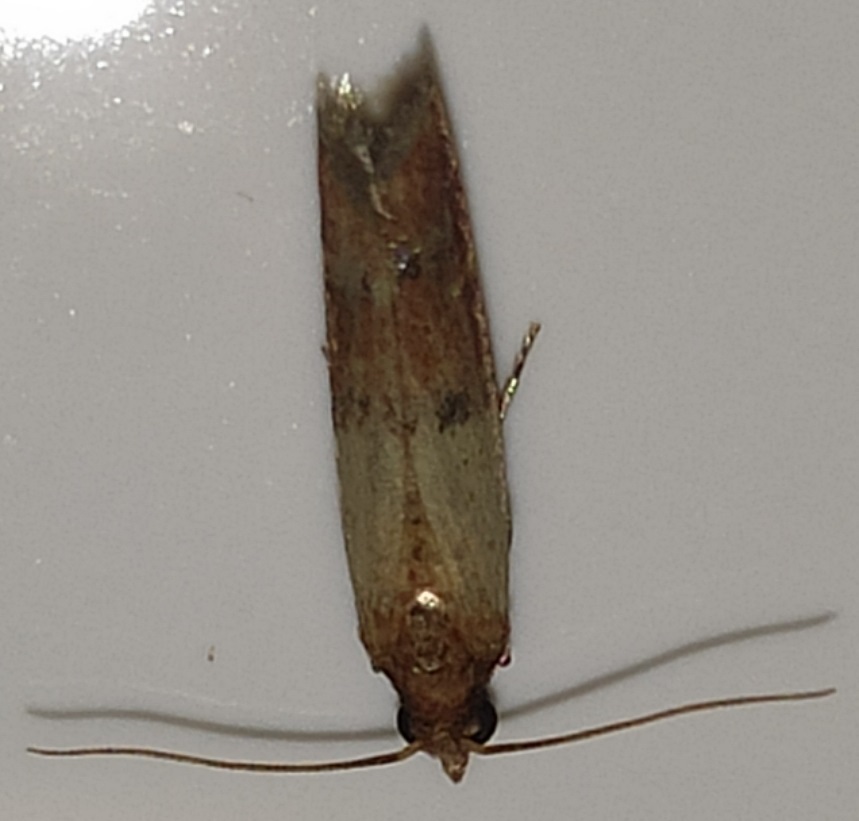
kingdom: Animalia
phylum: Arthropoda
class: Insecta
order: Lepidoptera
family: Pyralidae
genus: Plodia
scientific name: Plodia interpunctella
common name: Indian meal moth
